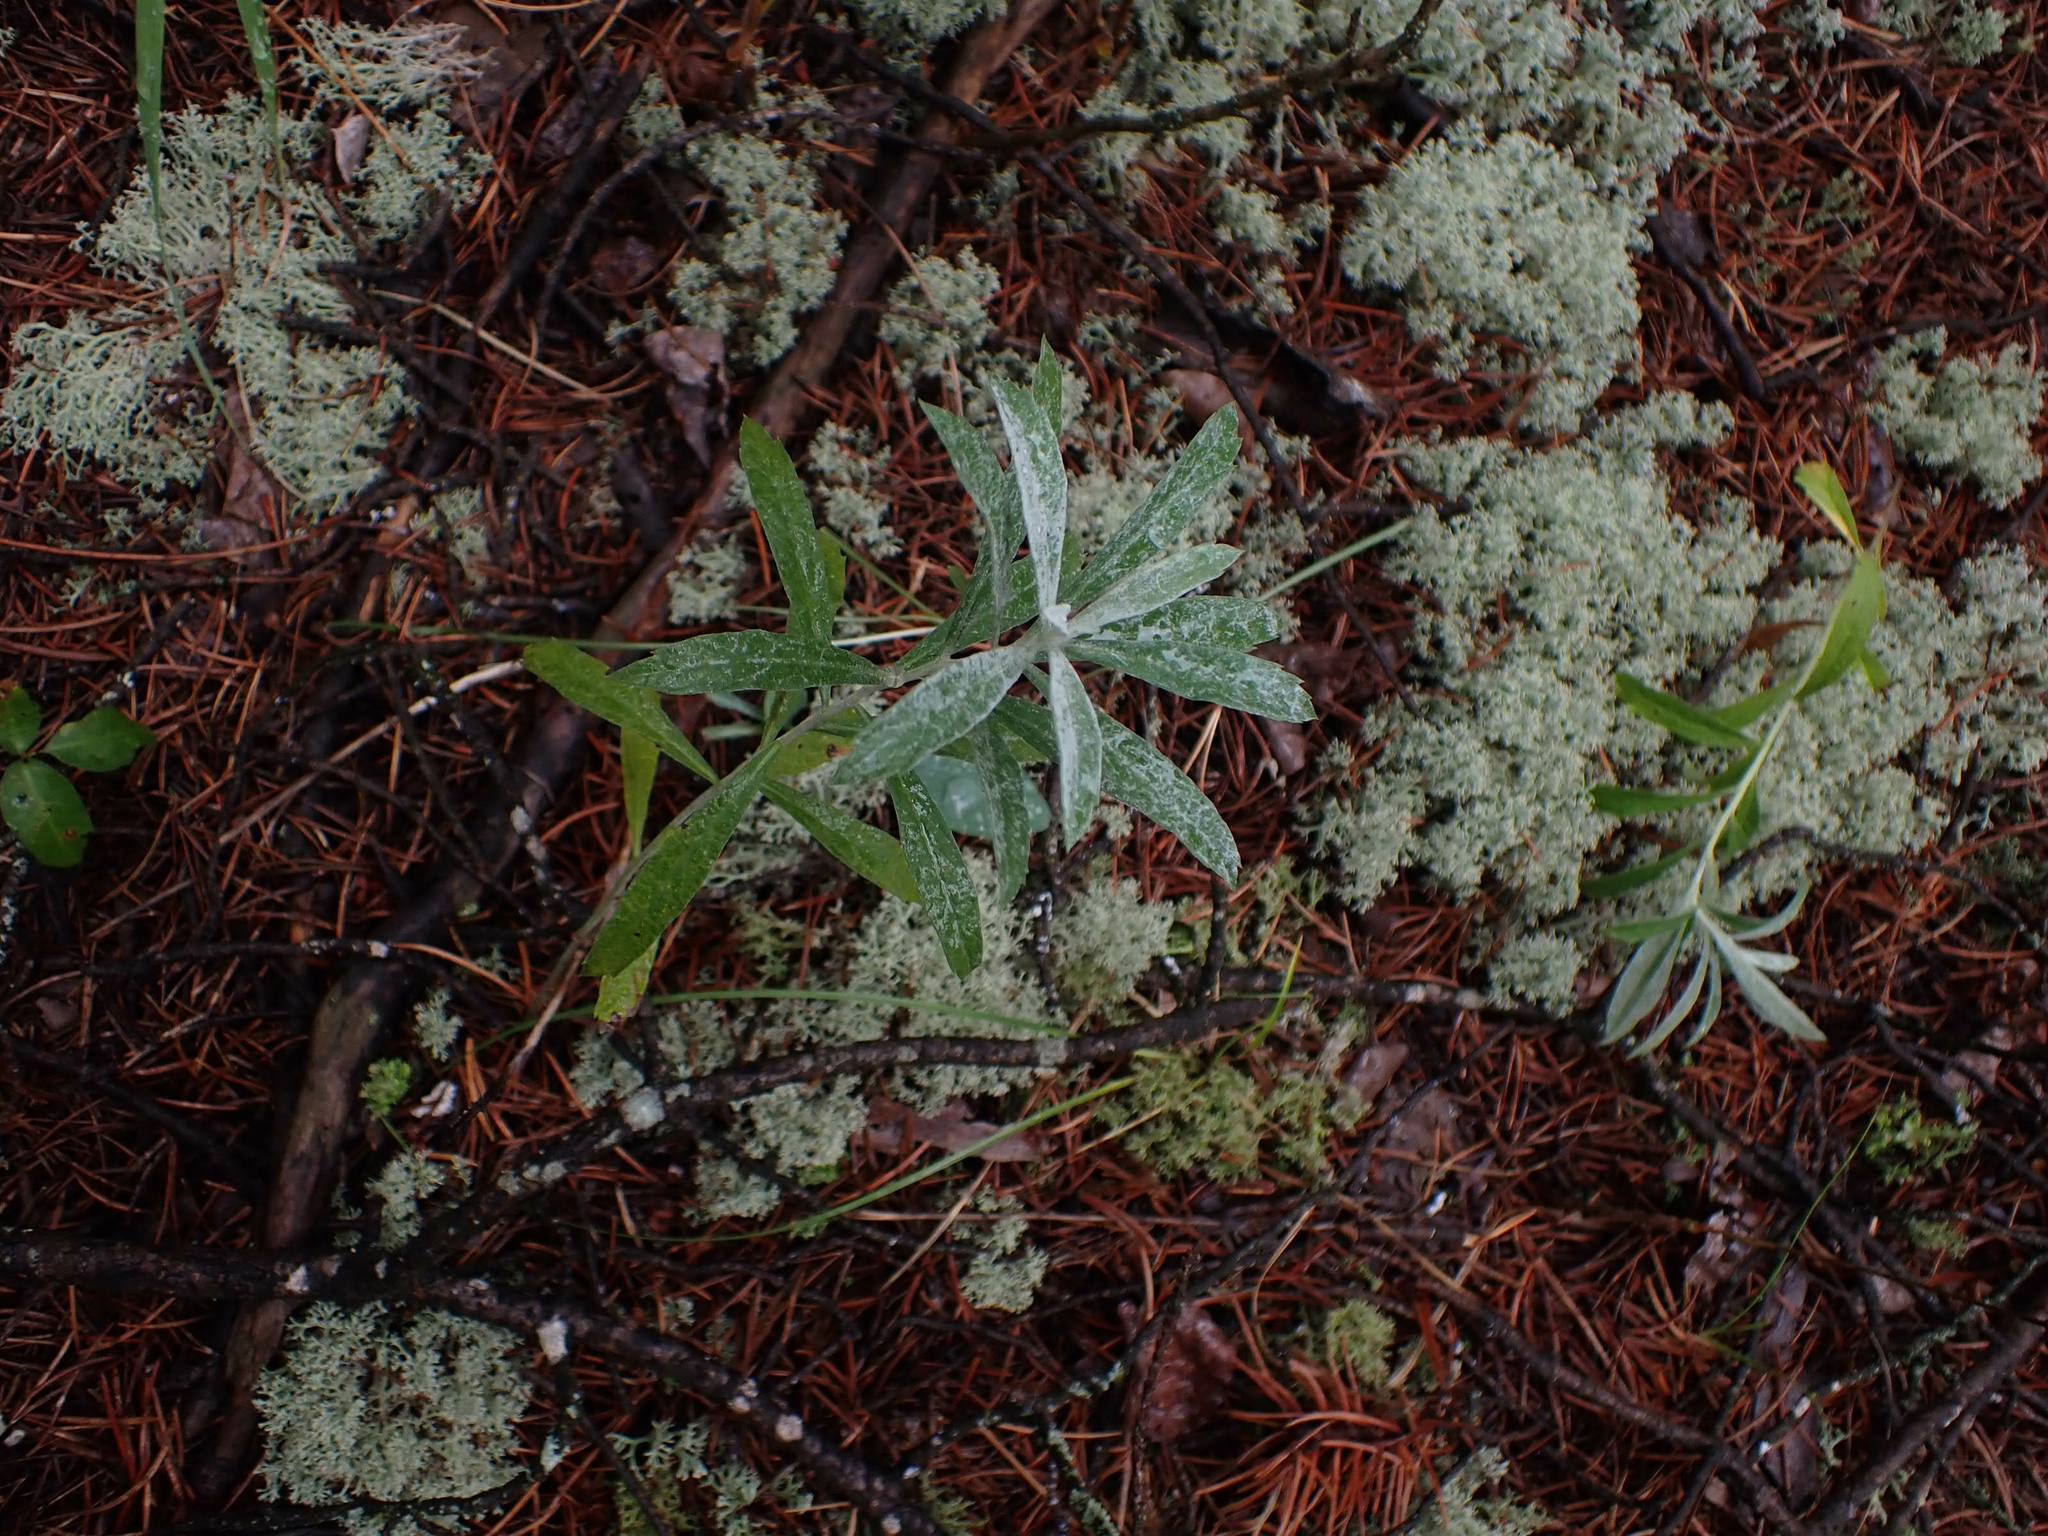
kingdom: Plantae
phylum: Tracheophyta
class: Magnoliopsida
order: Asterales
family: Asteraceae
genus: Artemisia
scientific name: Artemisia ludoviciana
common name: Western mugwort
